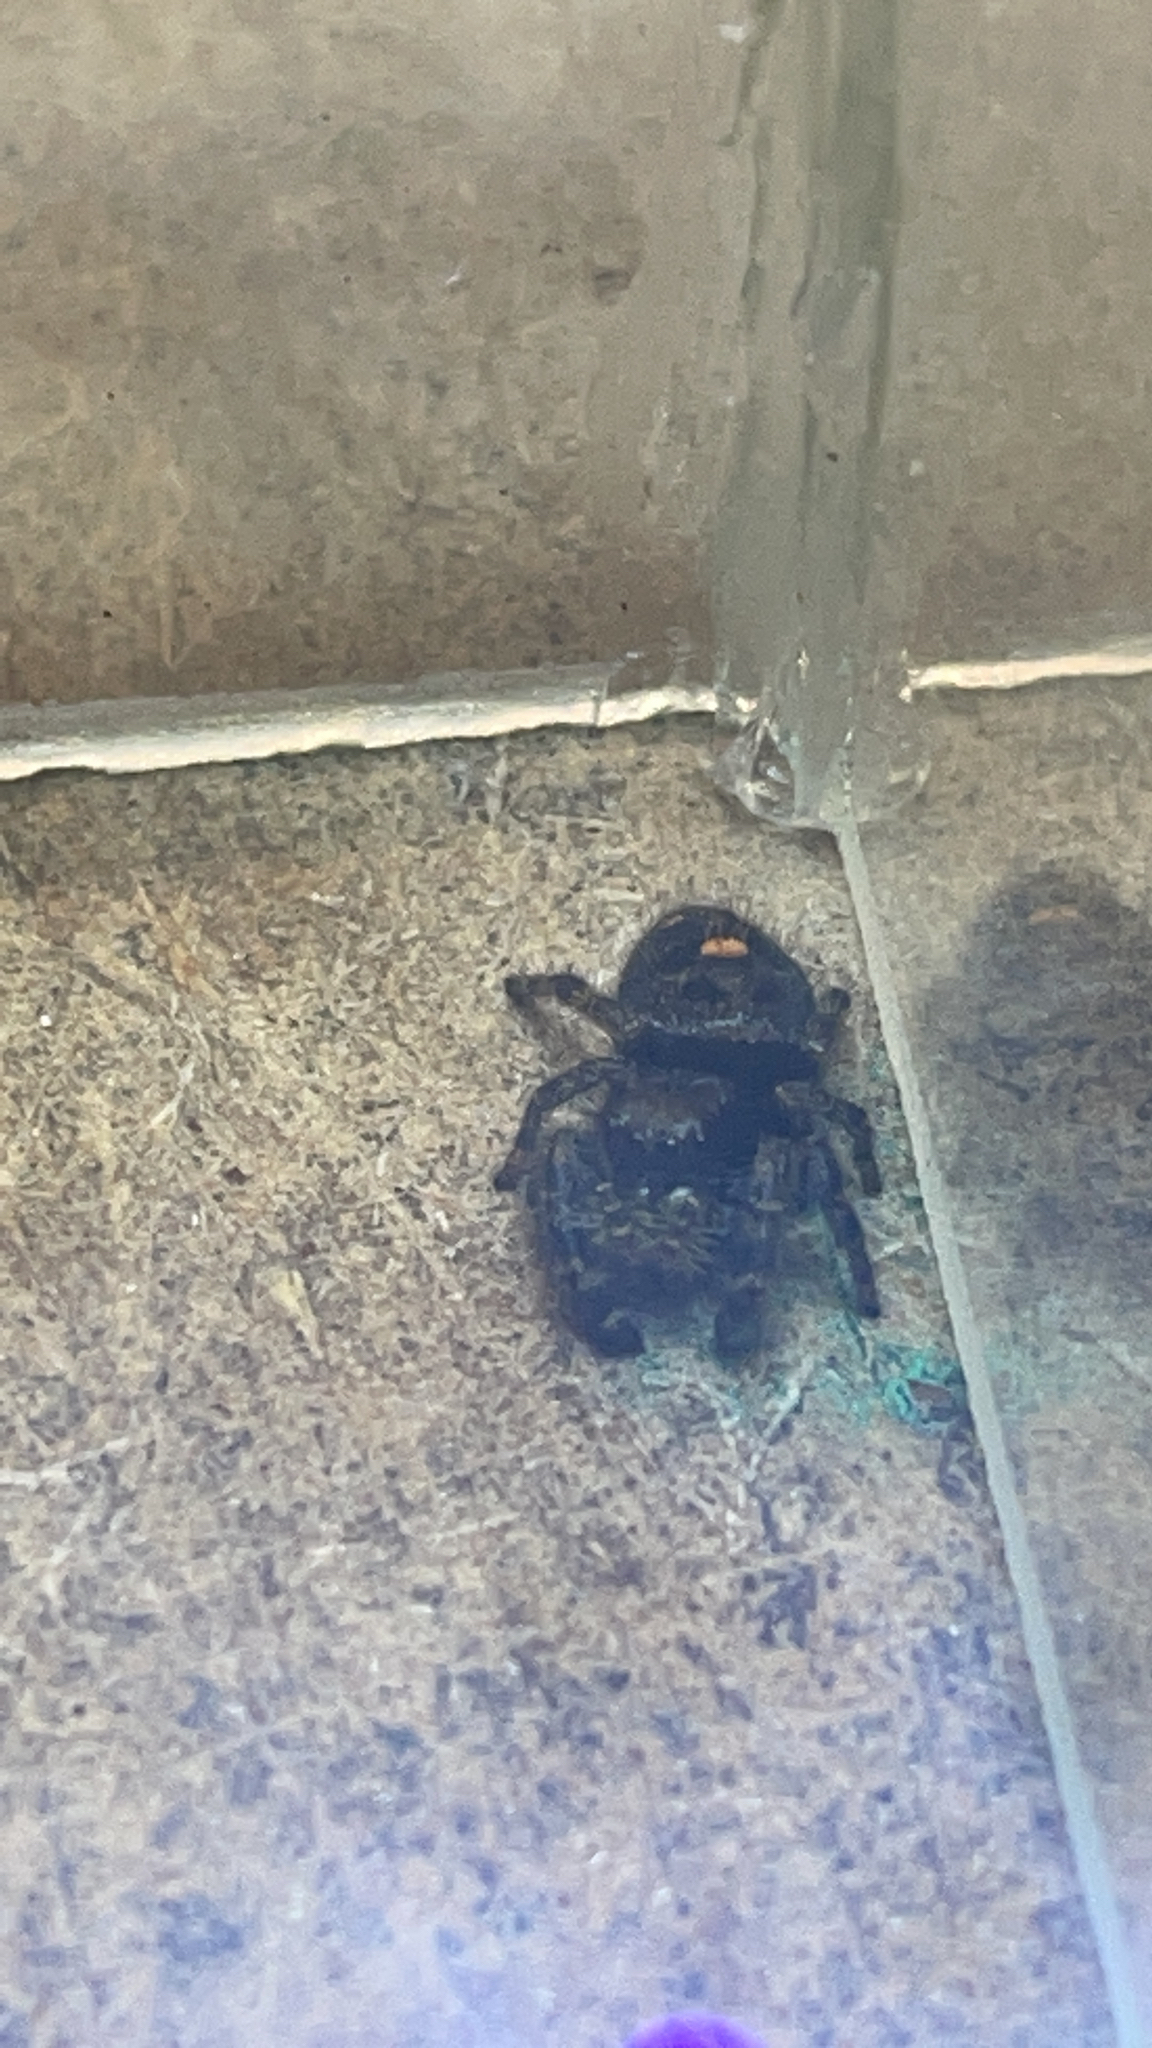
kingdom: Animalia
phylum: Arthropoda
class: Arachnida
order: Araneae
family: Salticidae
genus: Phidippus
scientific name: Phidippus audax
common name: Bold jumper
